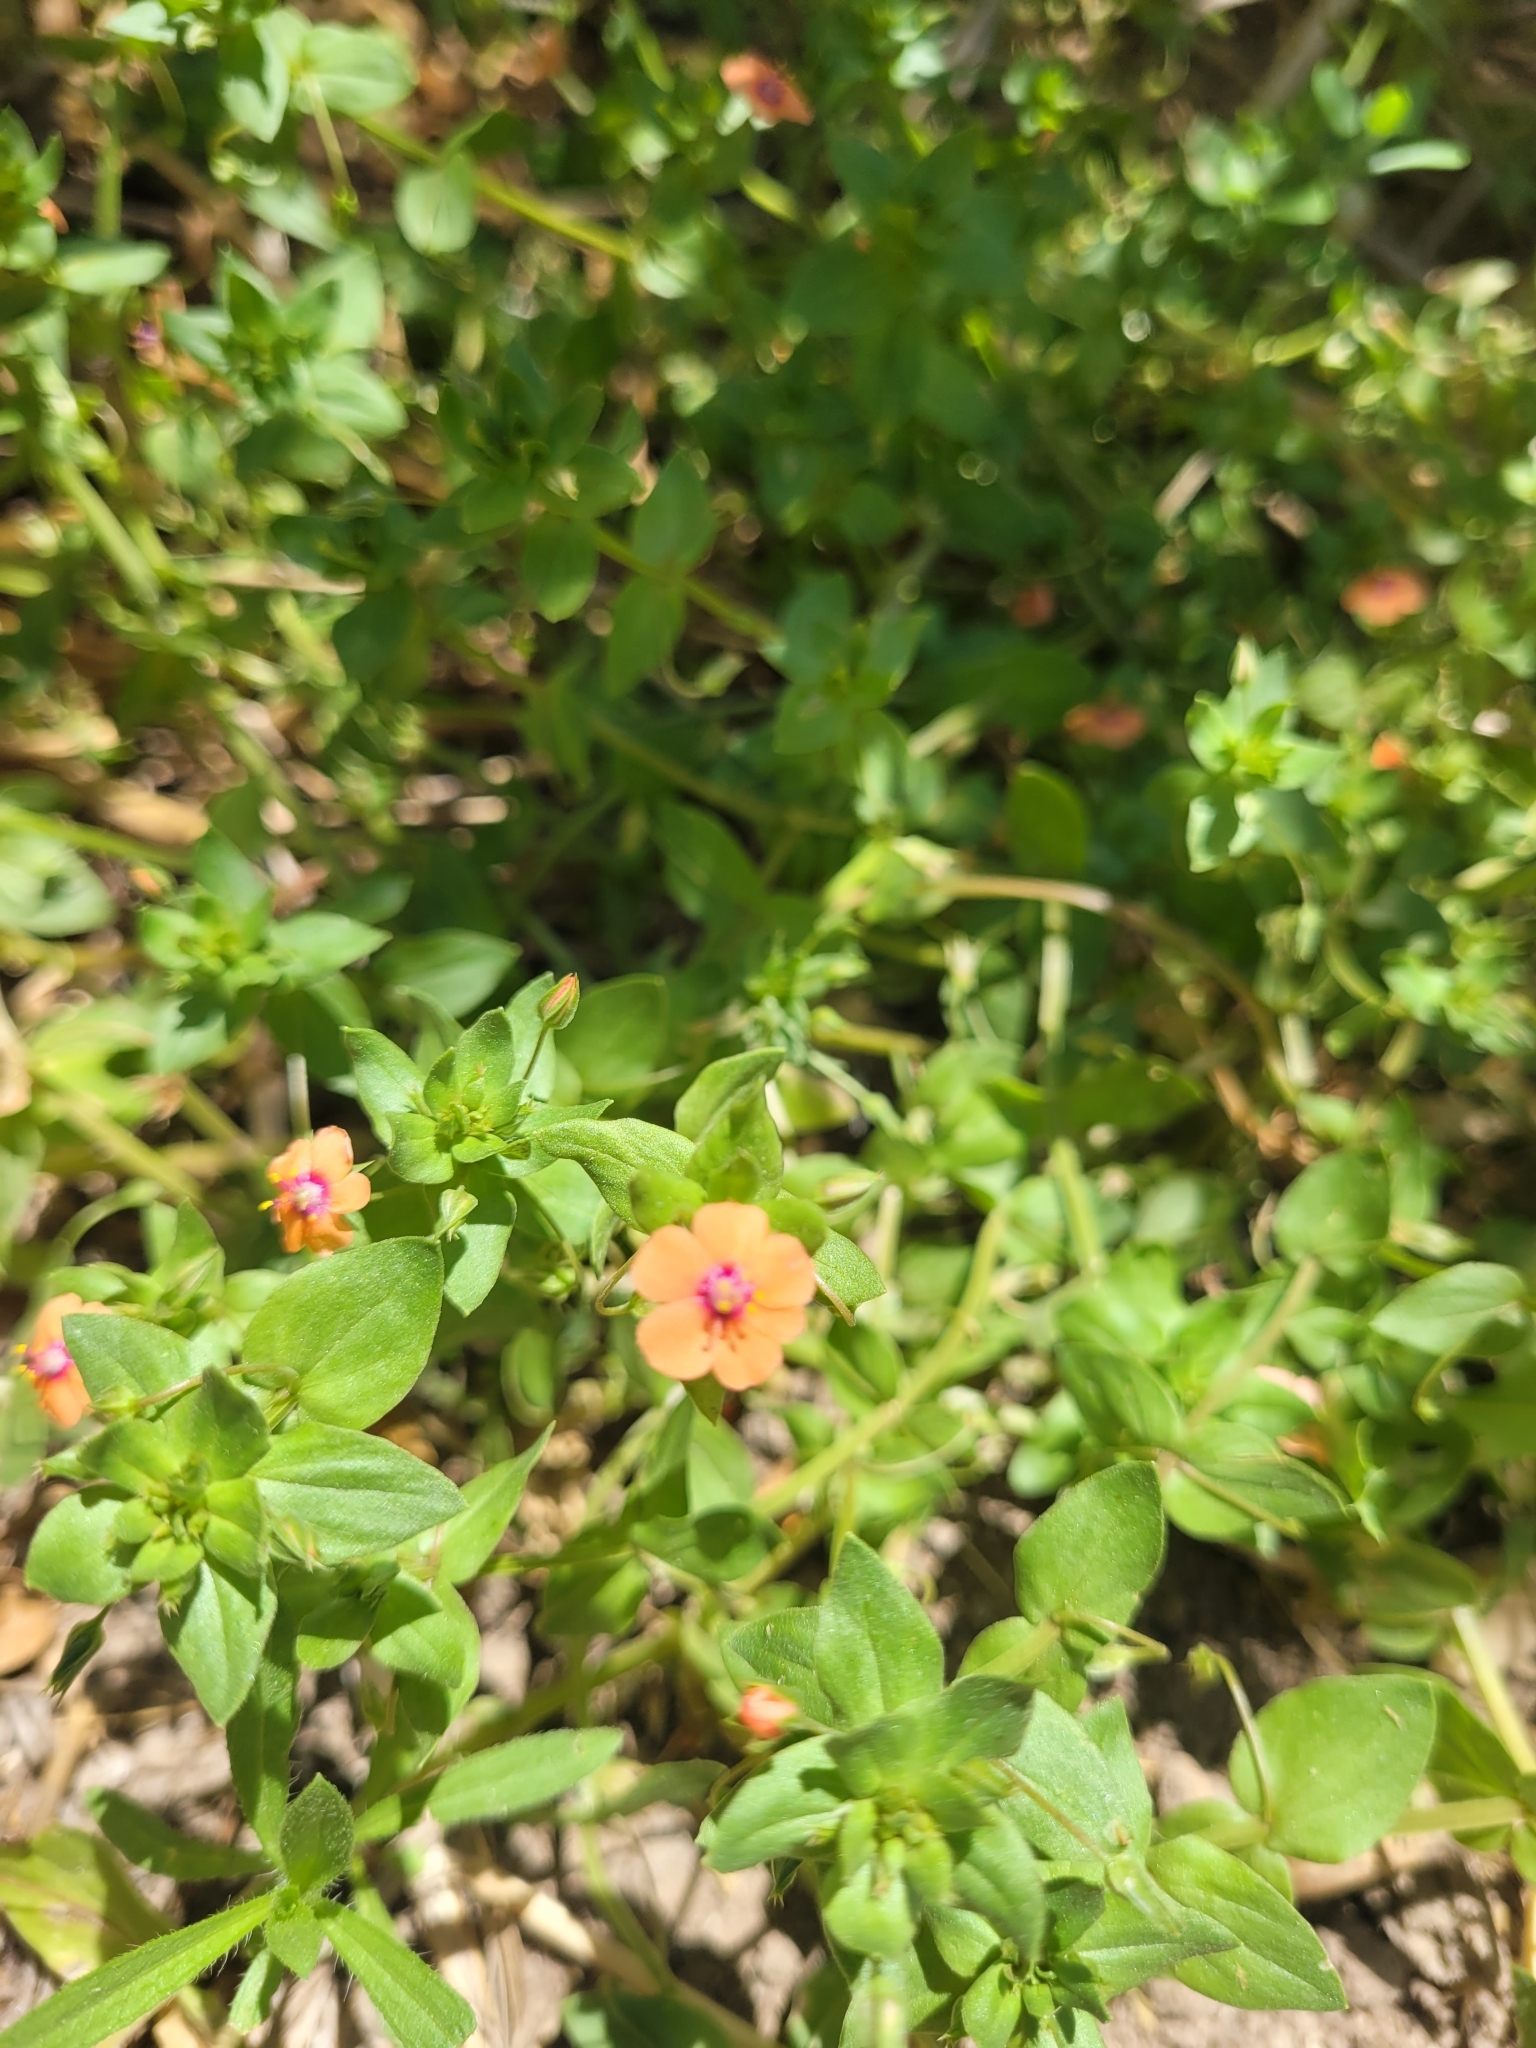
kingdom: Plantae
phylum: Tracheophyta
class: Magnoliopsida
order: Ericales
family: Primulaceae
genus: Lysimachia
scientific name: Lysimachia arvensis
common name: Scarlet pimpernel
